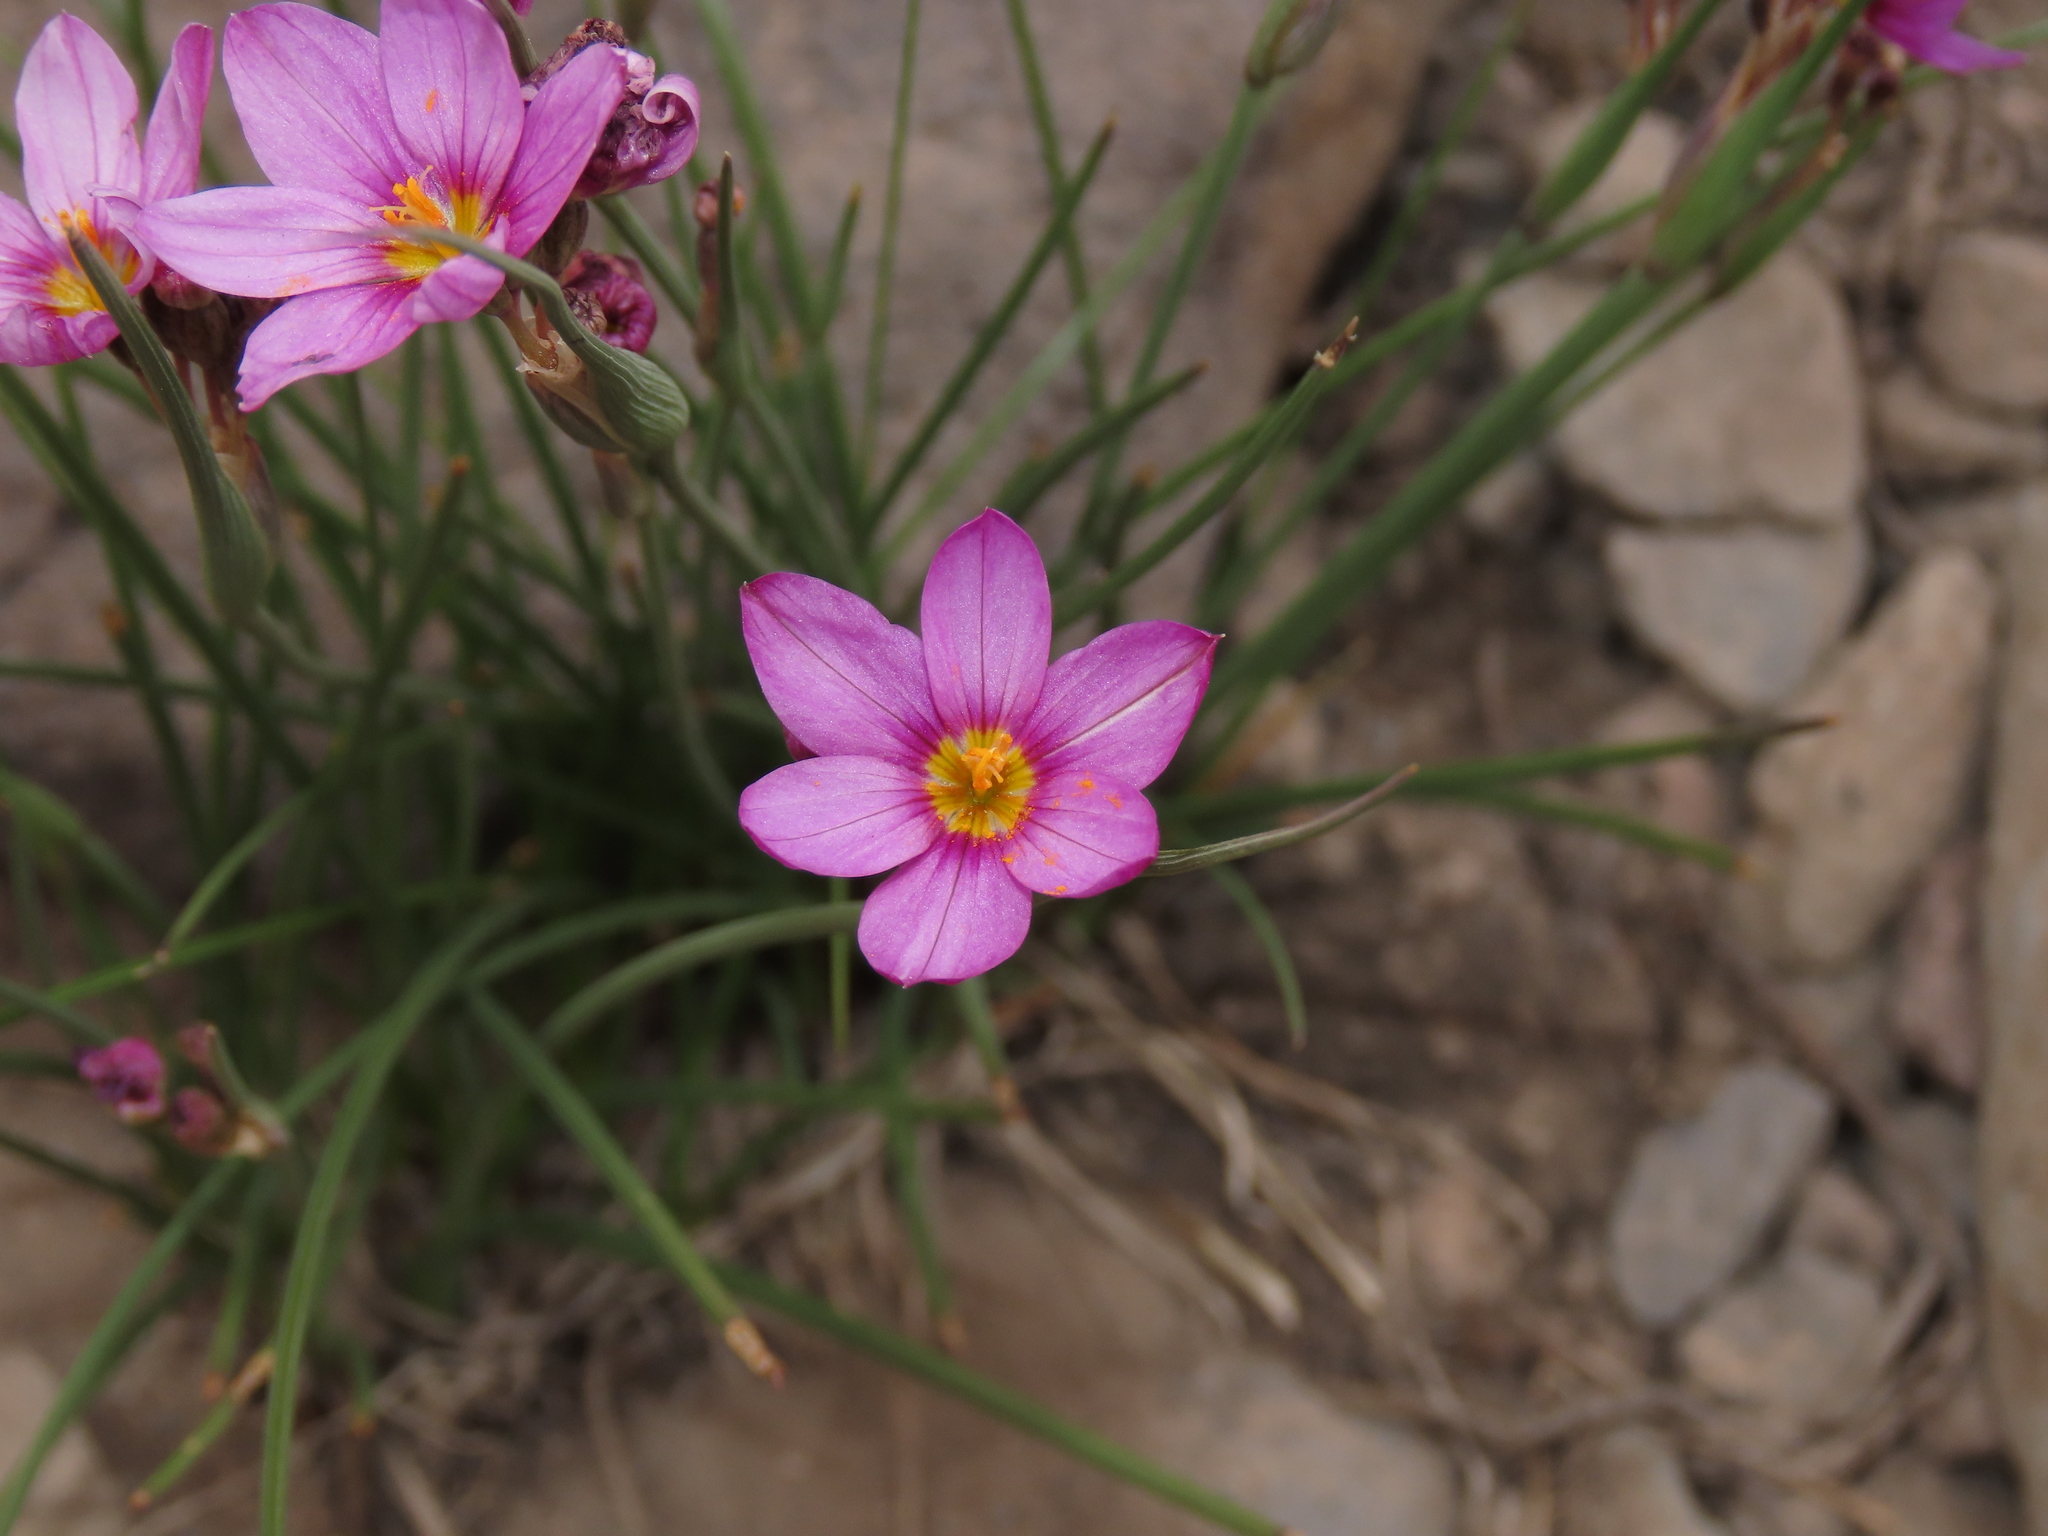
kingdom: Plantae
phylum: Tracheophyta
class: Liliopsida
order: Asparagales
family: Iridaceae
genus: Olsynium
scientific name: Olsynium junceum
